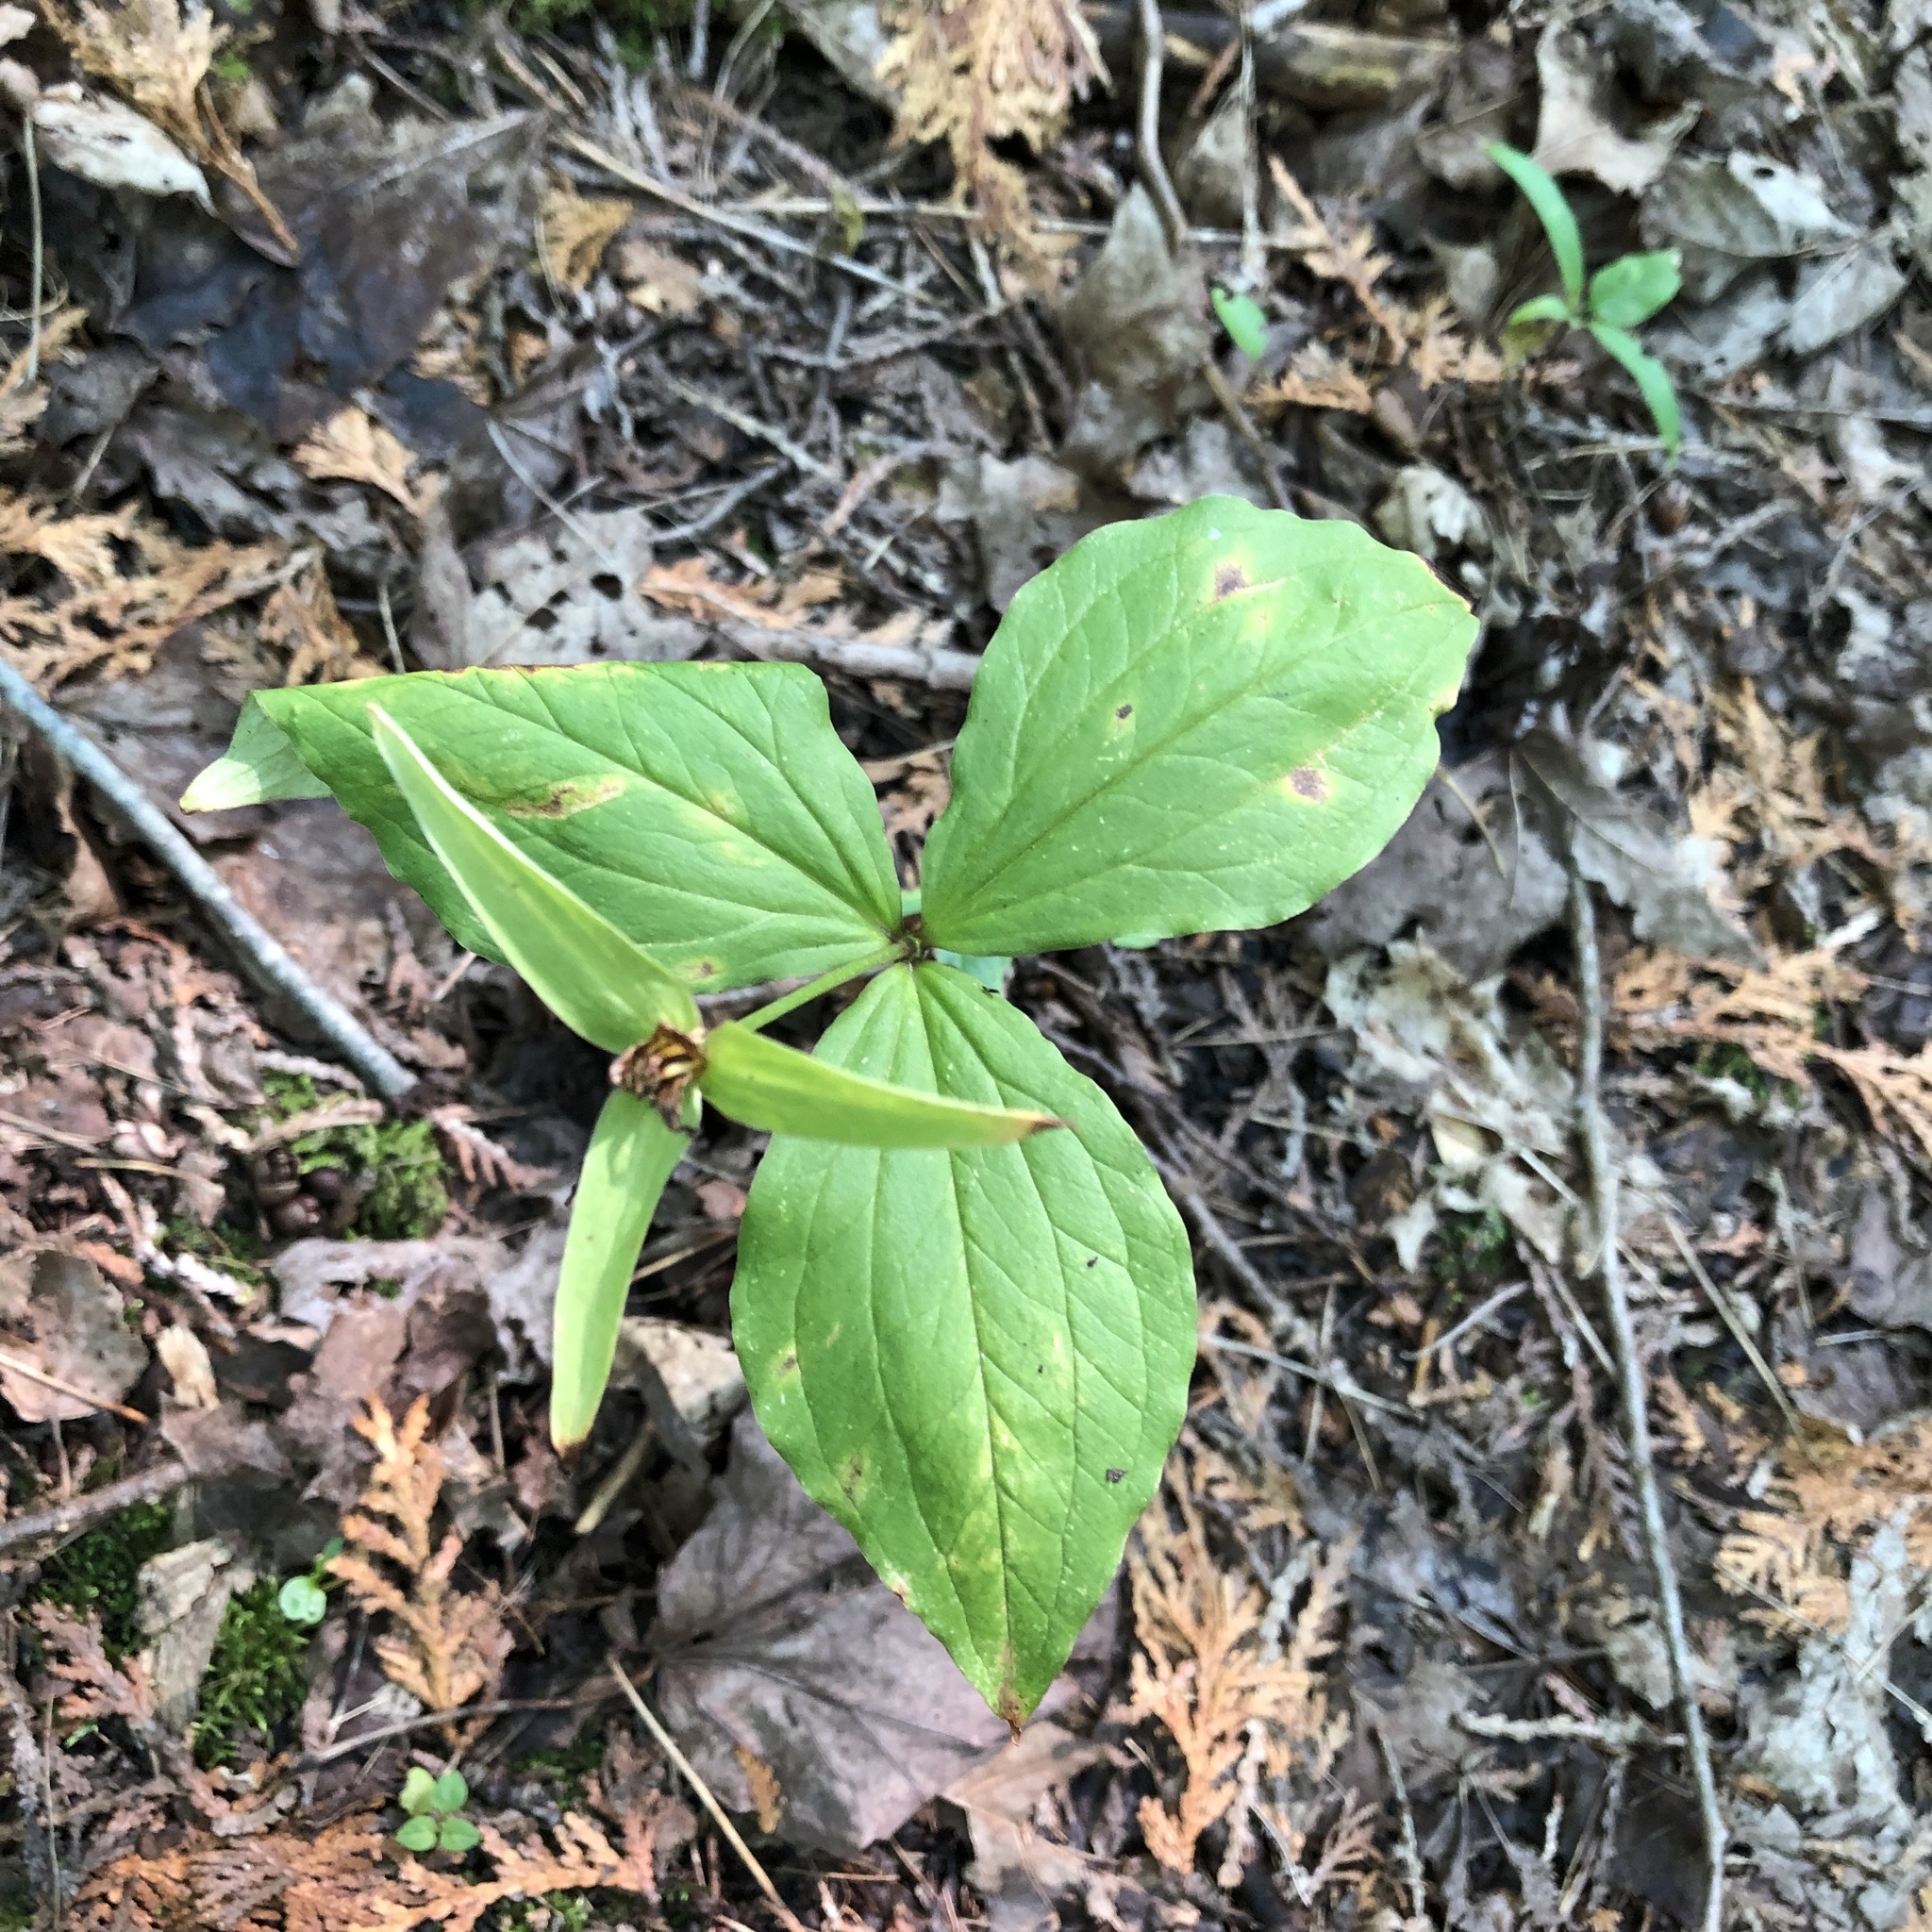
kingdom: Plantae
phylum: Tracheophyta
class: Liliopsida
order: Liliales
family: Melanthiaceae
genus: Trillium
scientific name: Trillium grandiflorum
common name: Great white trillium
